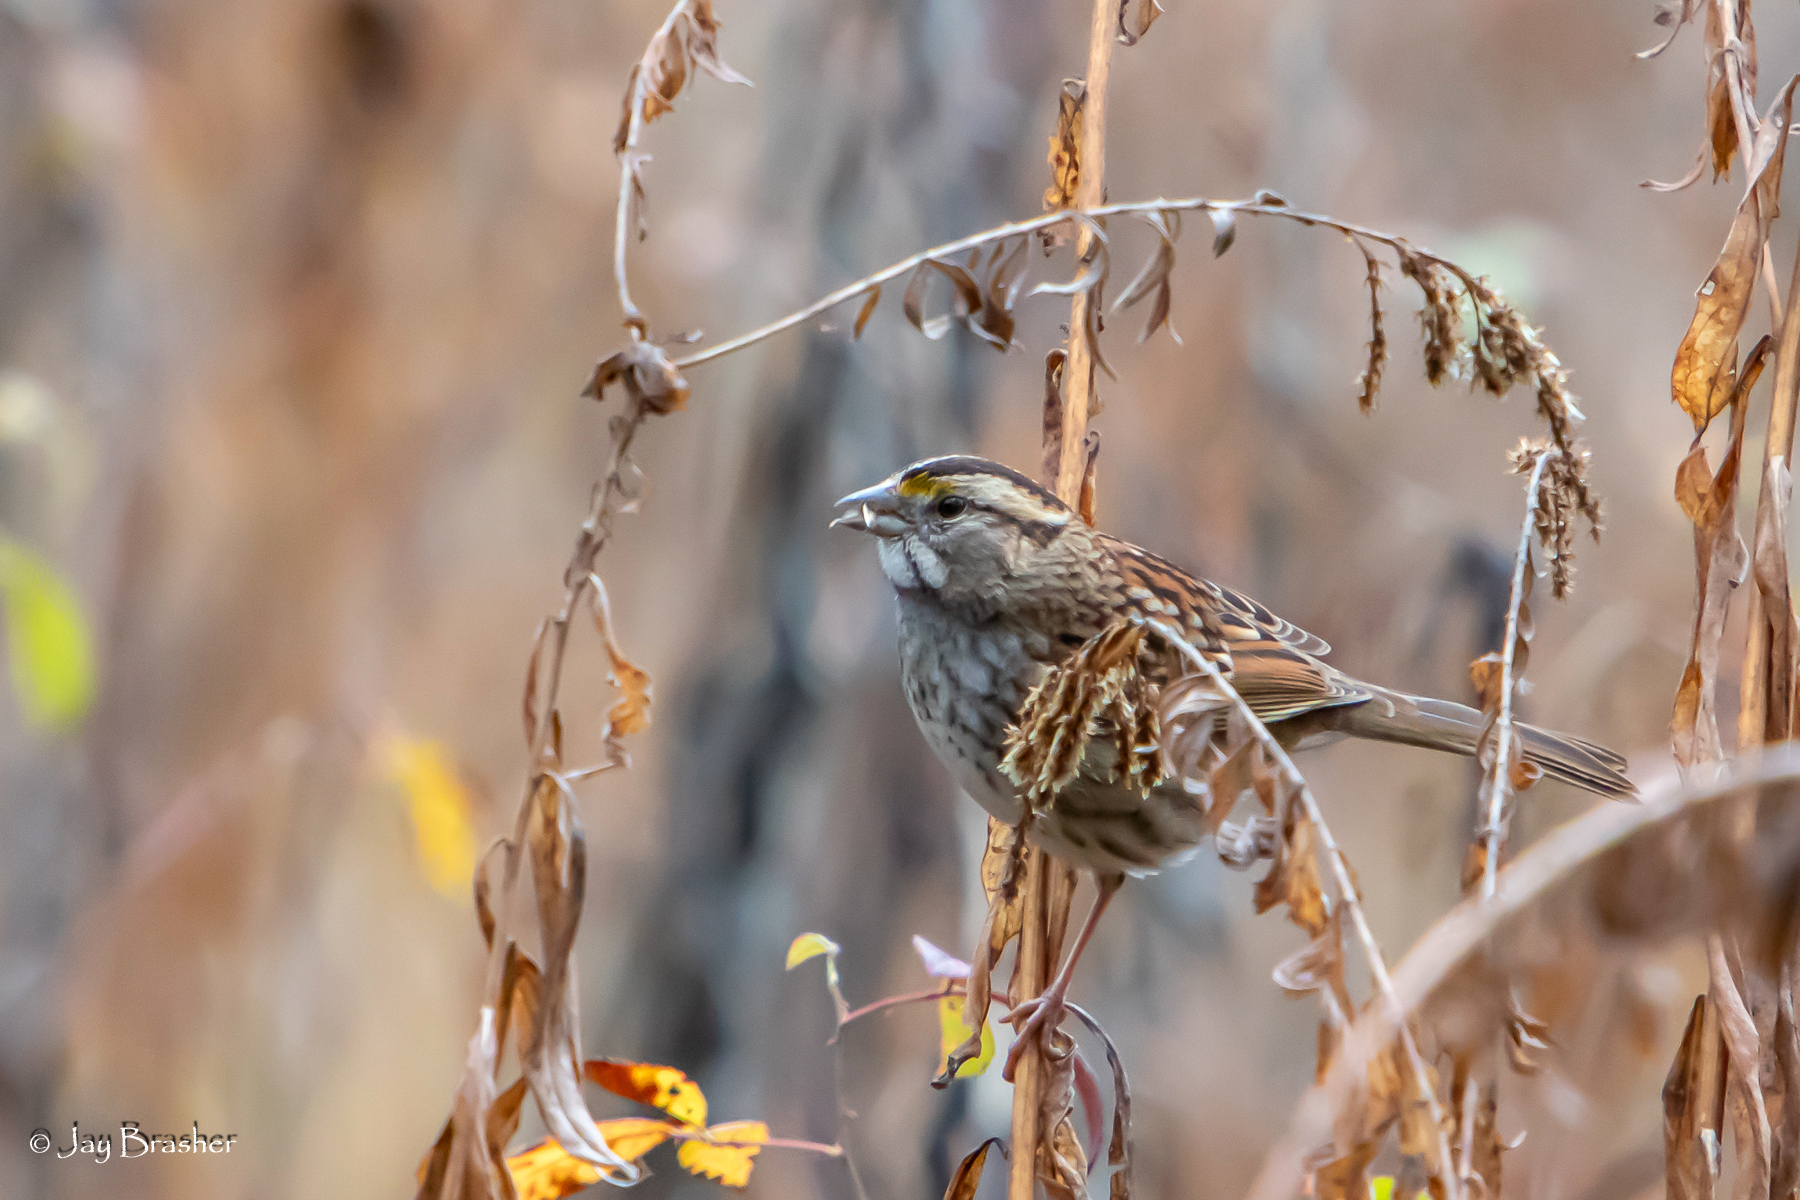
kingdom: Animalia
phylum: Chordata
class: Aves
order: Passeriformes
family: Passerellidae
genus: Zonotrichia
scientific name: Zonotrichia albicollis
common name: White-throated sparrow
